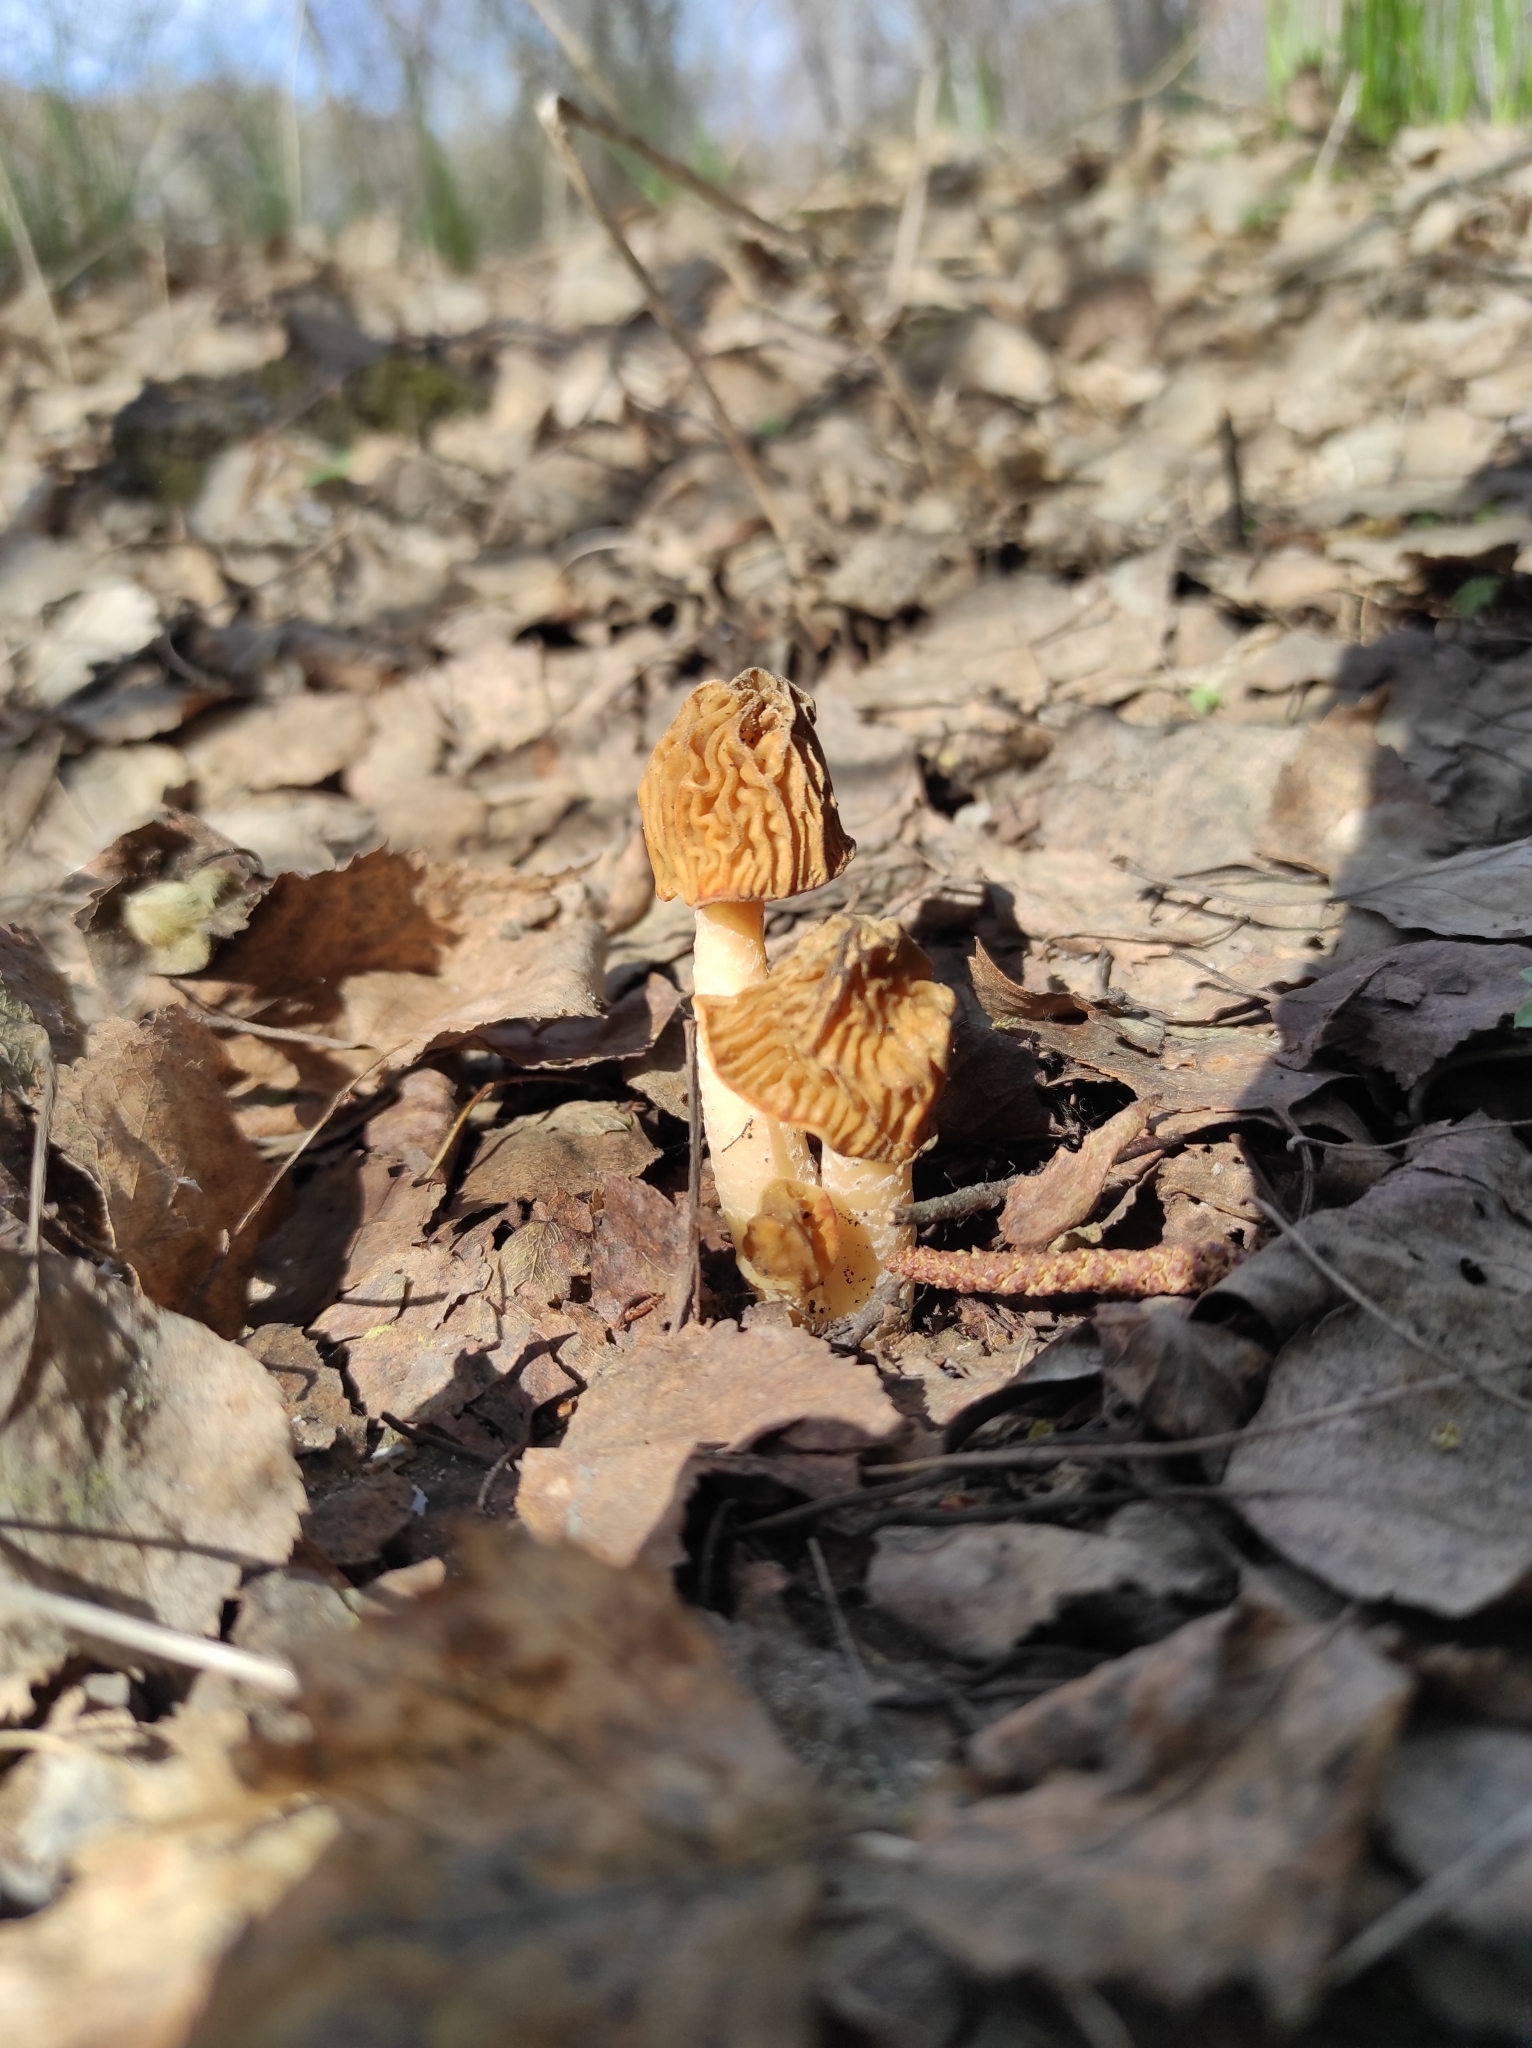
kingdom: Fungi
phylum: Ascomycota
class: Pezizomycetes
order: Pezizales
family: Morchellaceae
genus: Verpa
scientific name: Verpa bohemica
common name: Wrinkled thimble morel
